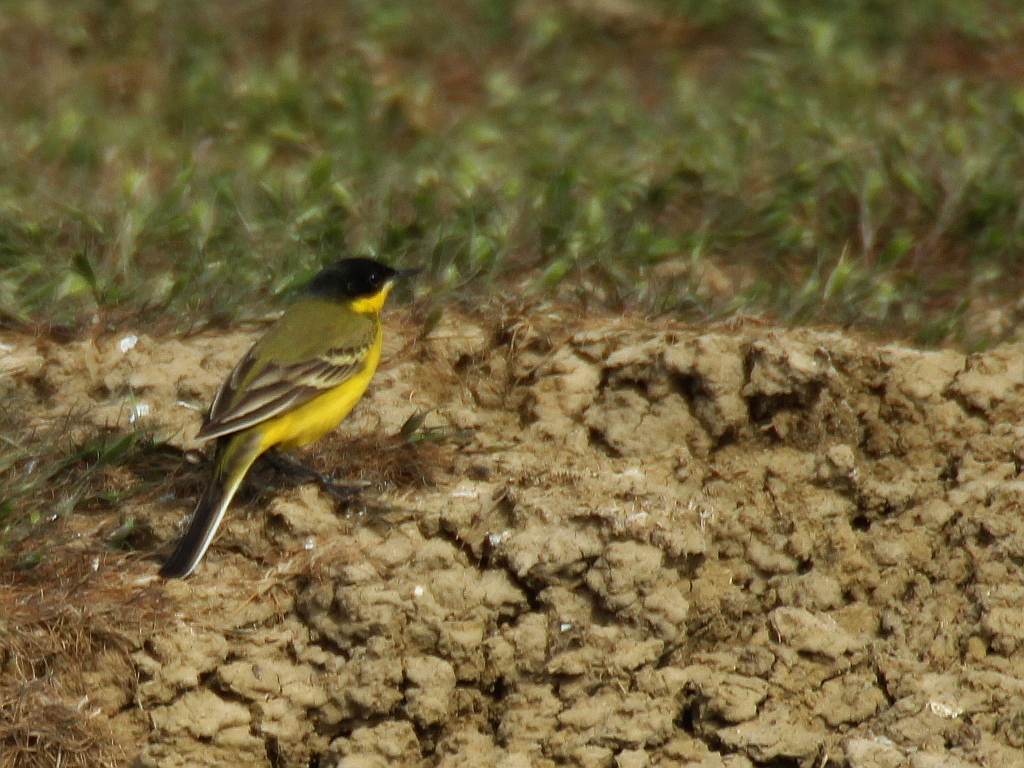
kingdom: Animalia
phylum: Chordata
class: Aves
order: Passeriformes
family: Motacillidae
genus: Motacilla
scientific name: Motacilla flava
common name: Western yellow wagtail
